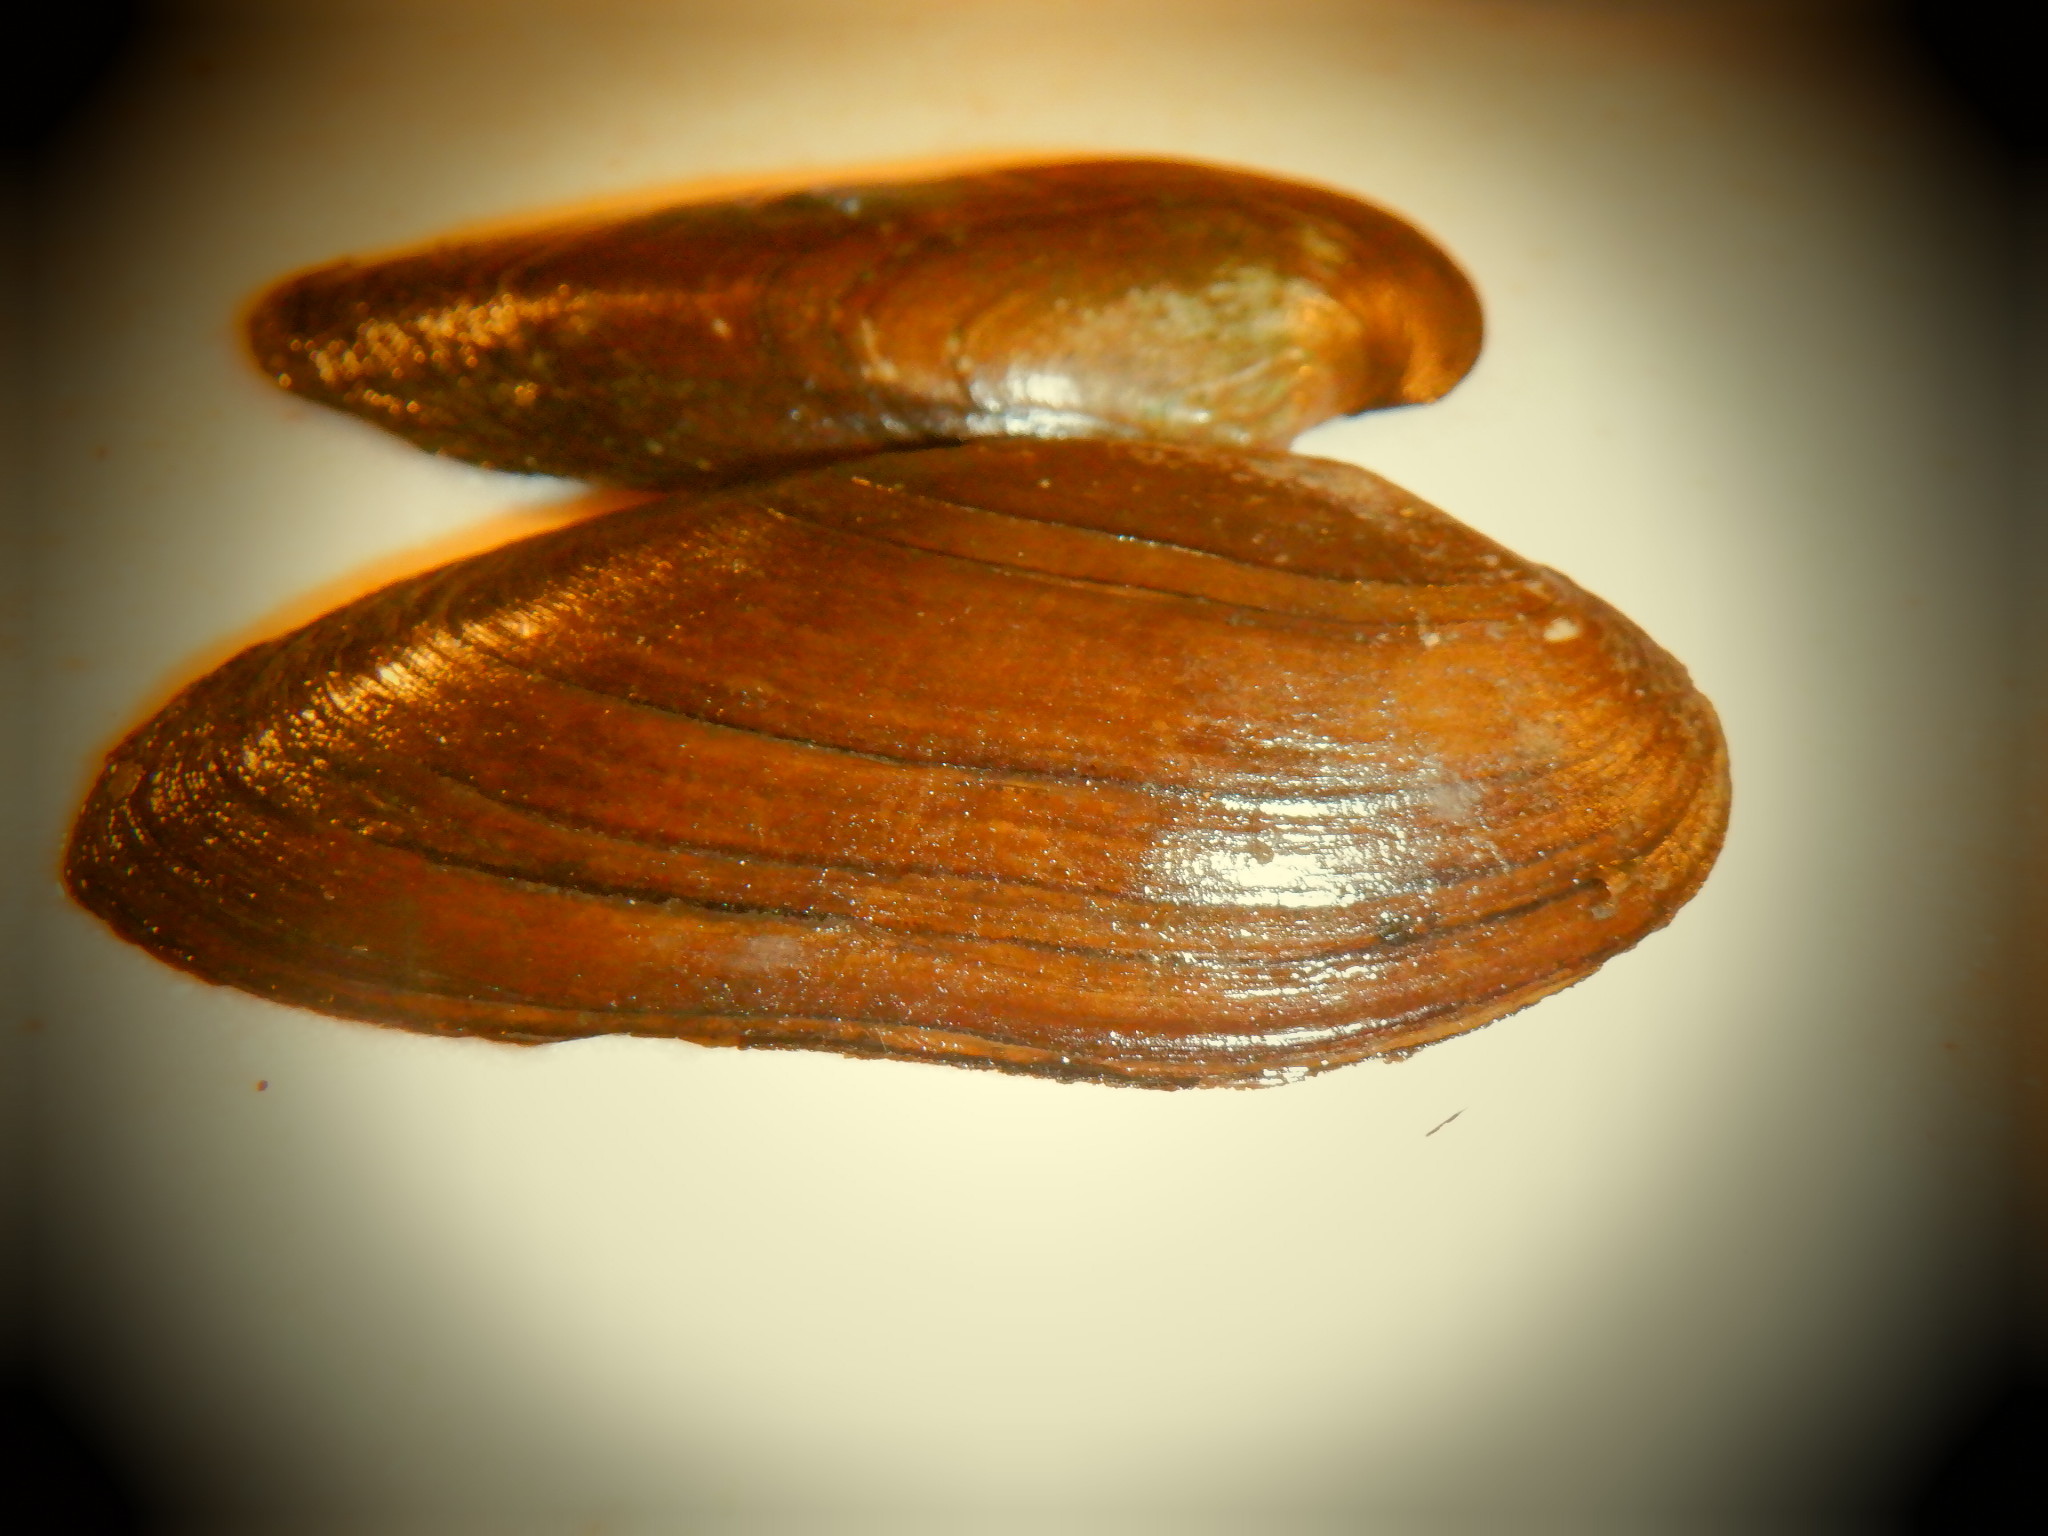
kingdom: Animalia
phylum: Mollusca
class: Bivalvia
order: Unionida
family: Unionidae
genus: Eurynia
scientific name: Eurynia dilatata
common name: Spike
